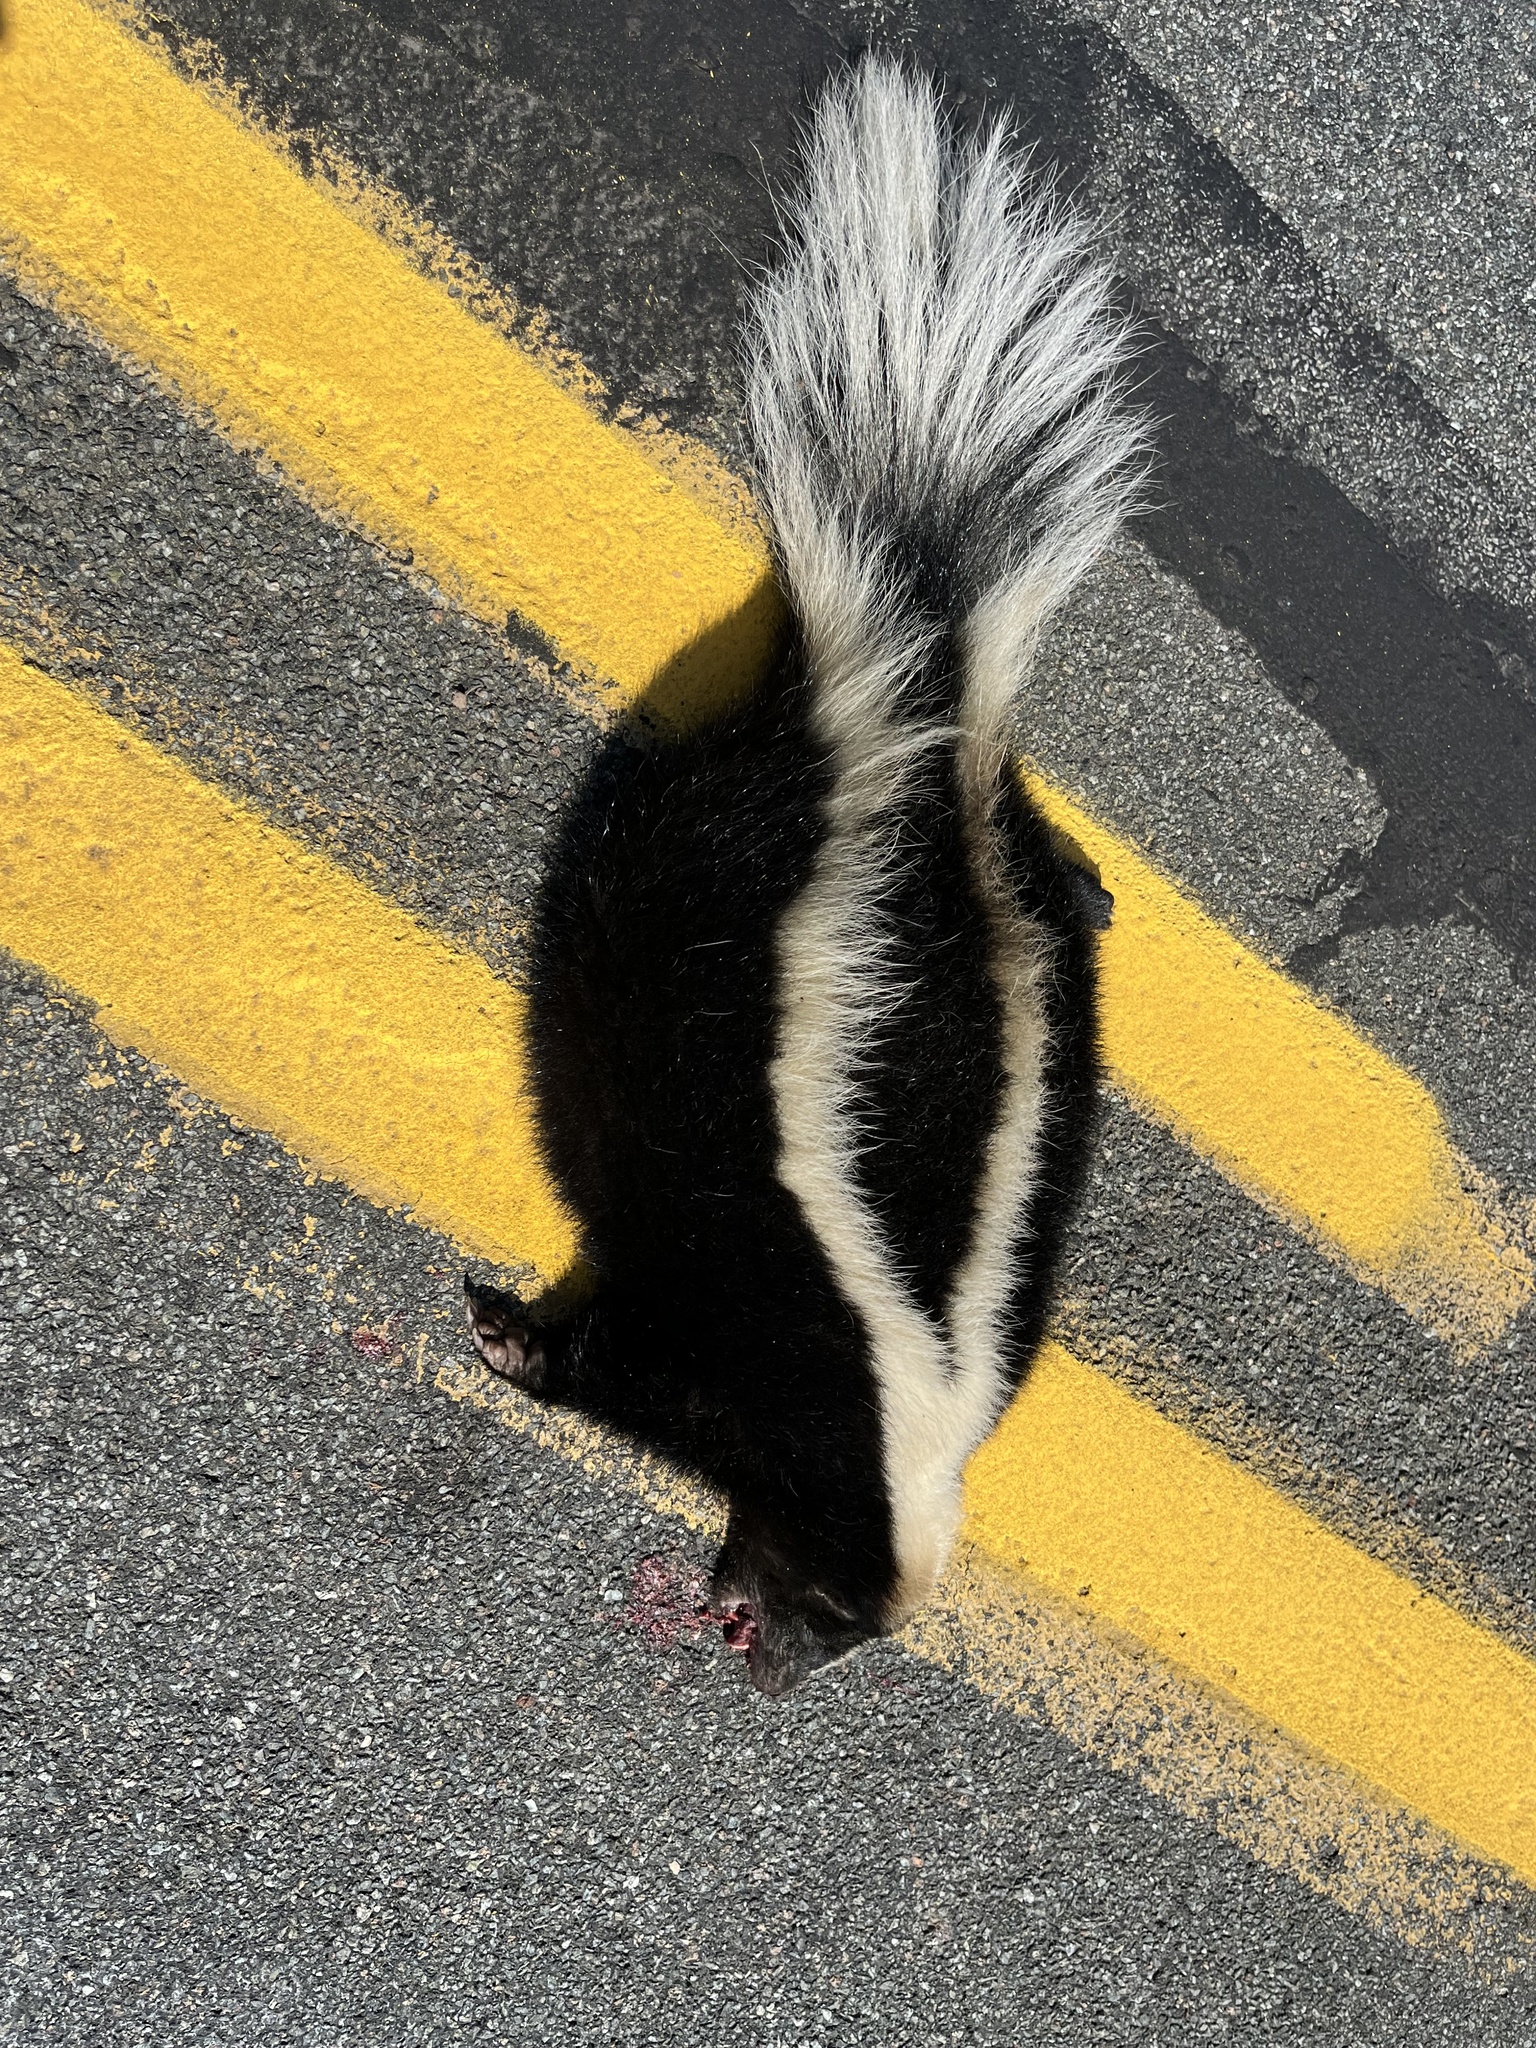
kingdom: Animalia
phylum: Chordata
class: Mammalia
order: Carnivora
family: Mephitidae
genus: Mephitis
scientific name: Mephitis mephitis
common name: Striped skunk
